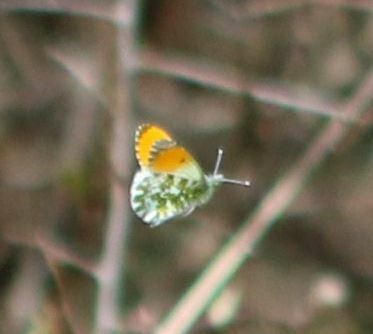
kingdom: Animalia
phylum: Arthropoda
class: Insecta
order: Lepidoptera
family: Pieridae
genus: Anthocharis
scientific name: Anthocharis cardamines
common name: Orange-tip
